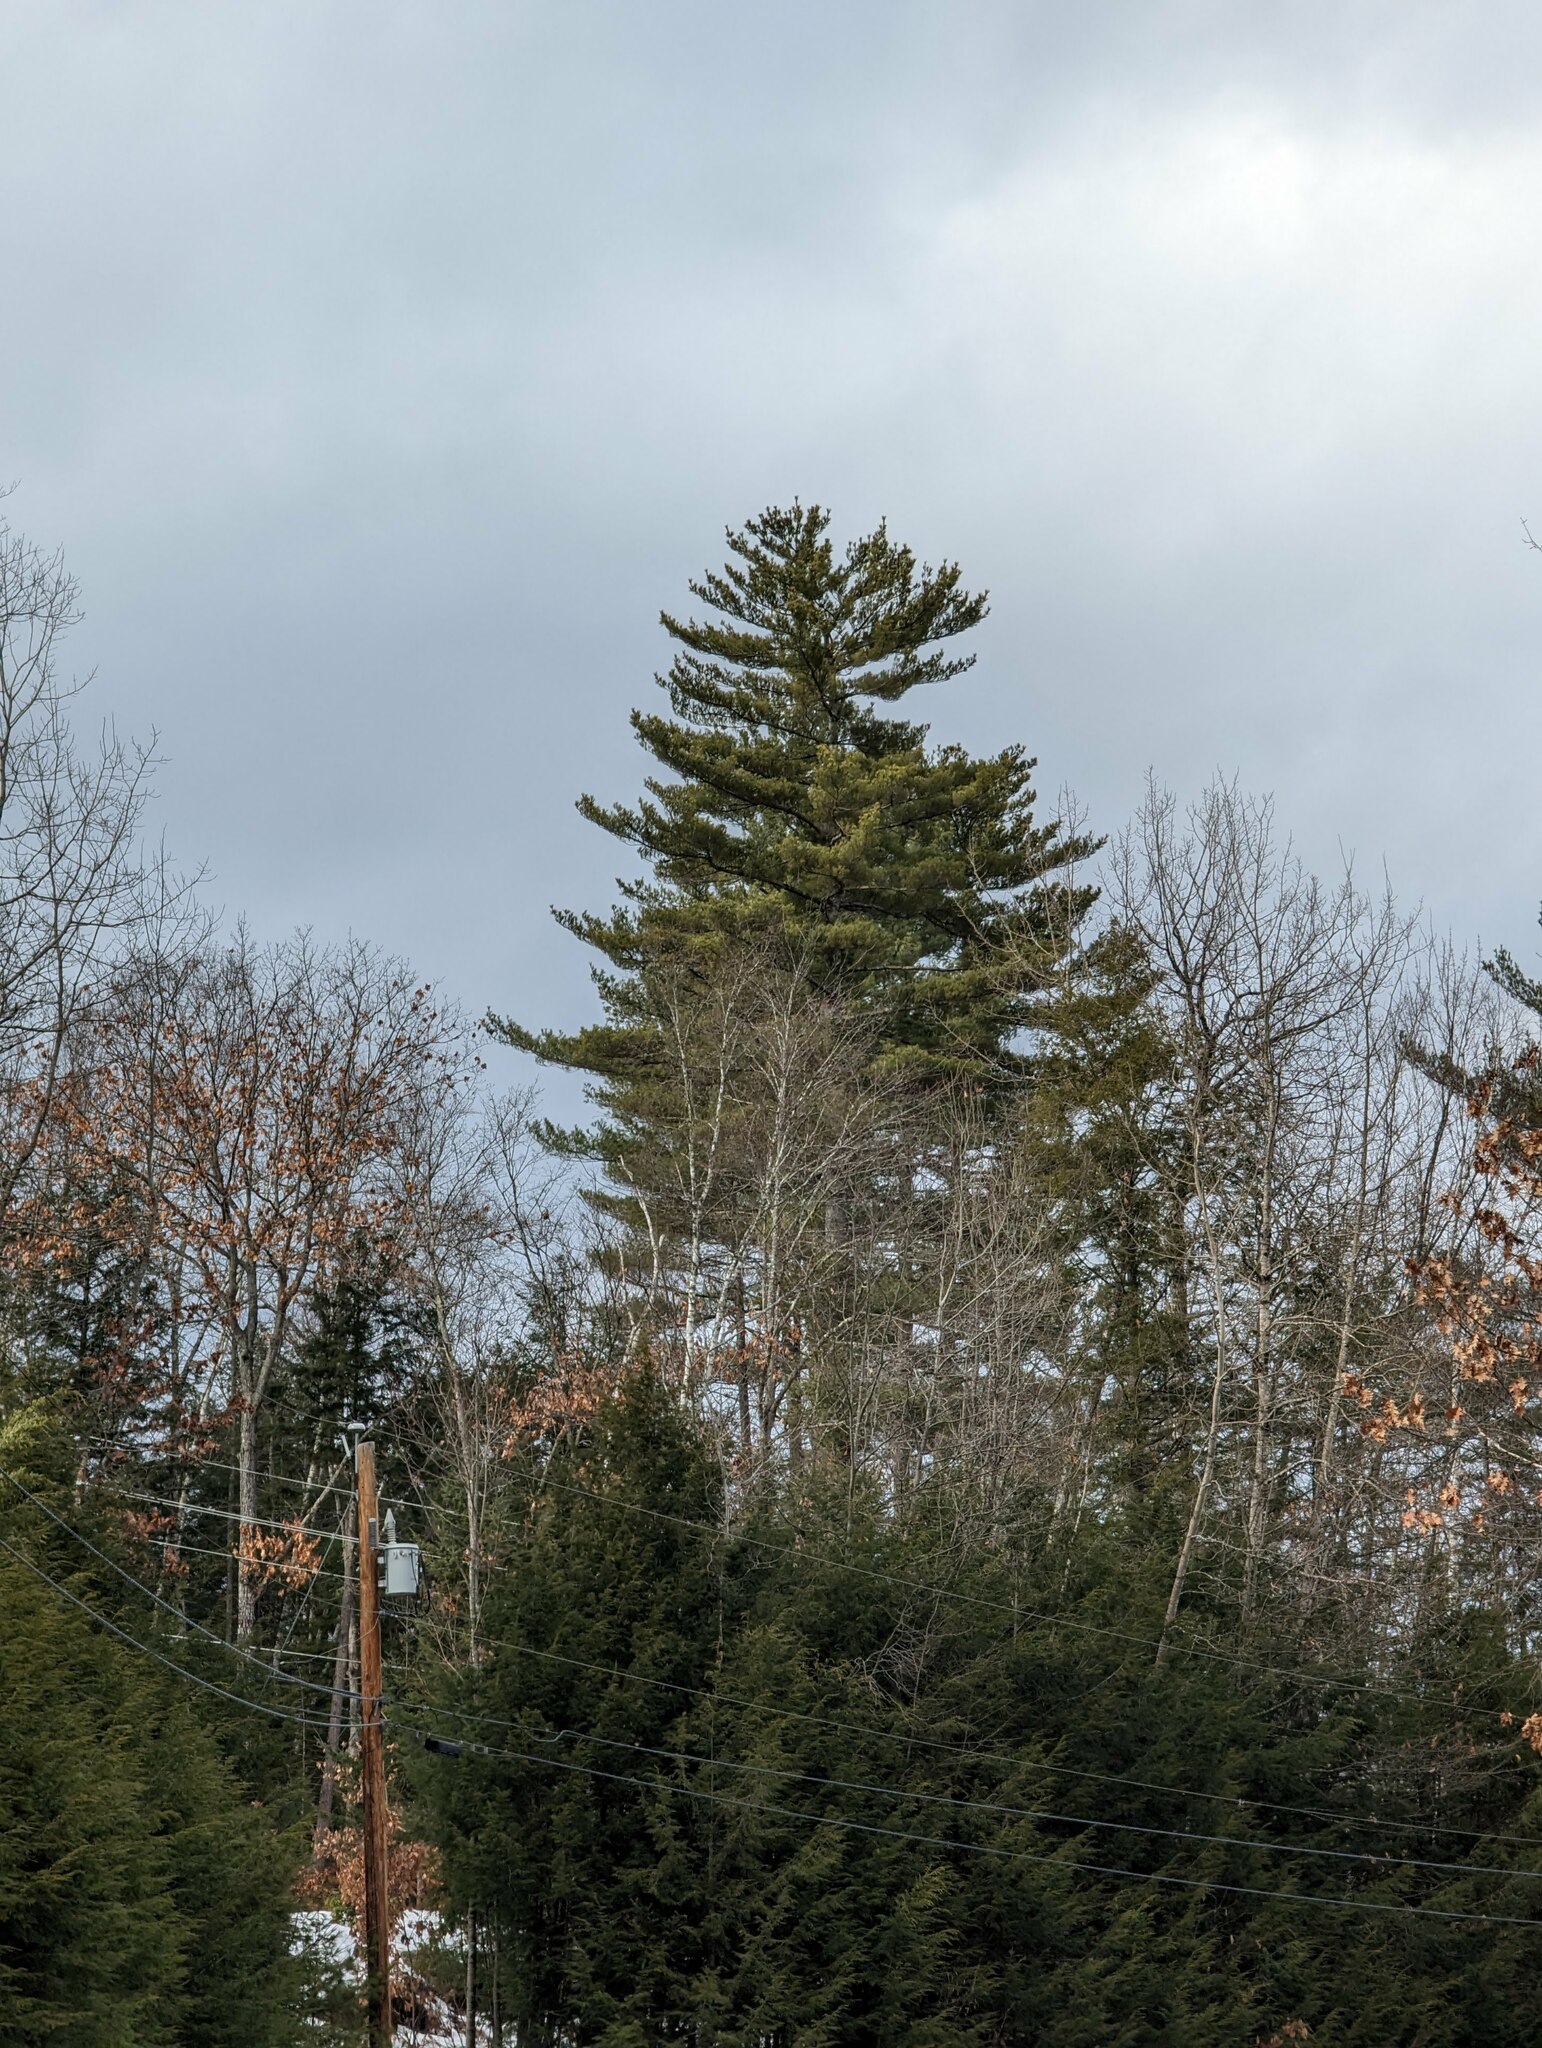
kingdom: Plantae
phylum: Tracheophyta
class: Pinopsida
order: Pinales
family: Pinaceae
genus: Pinus
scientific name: Pinus strobus
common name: Weymouth pine
